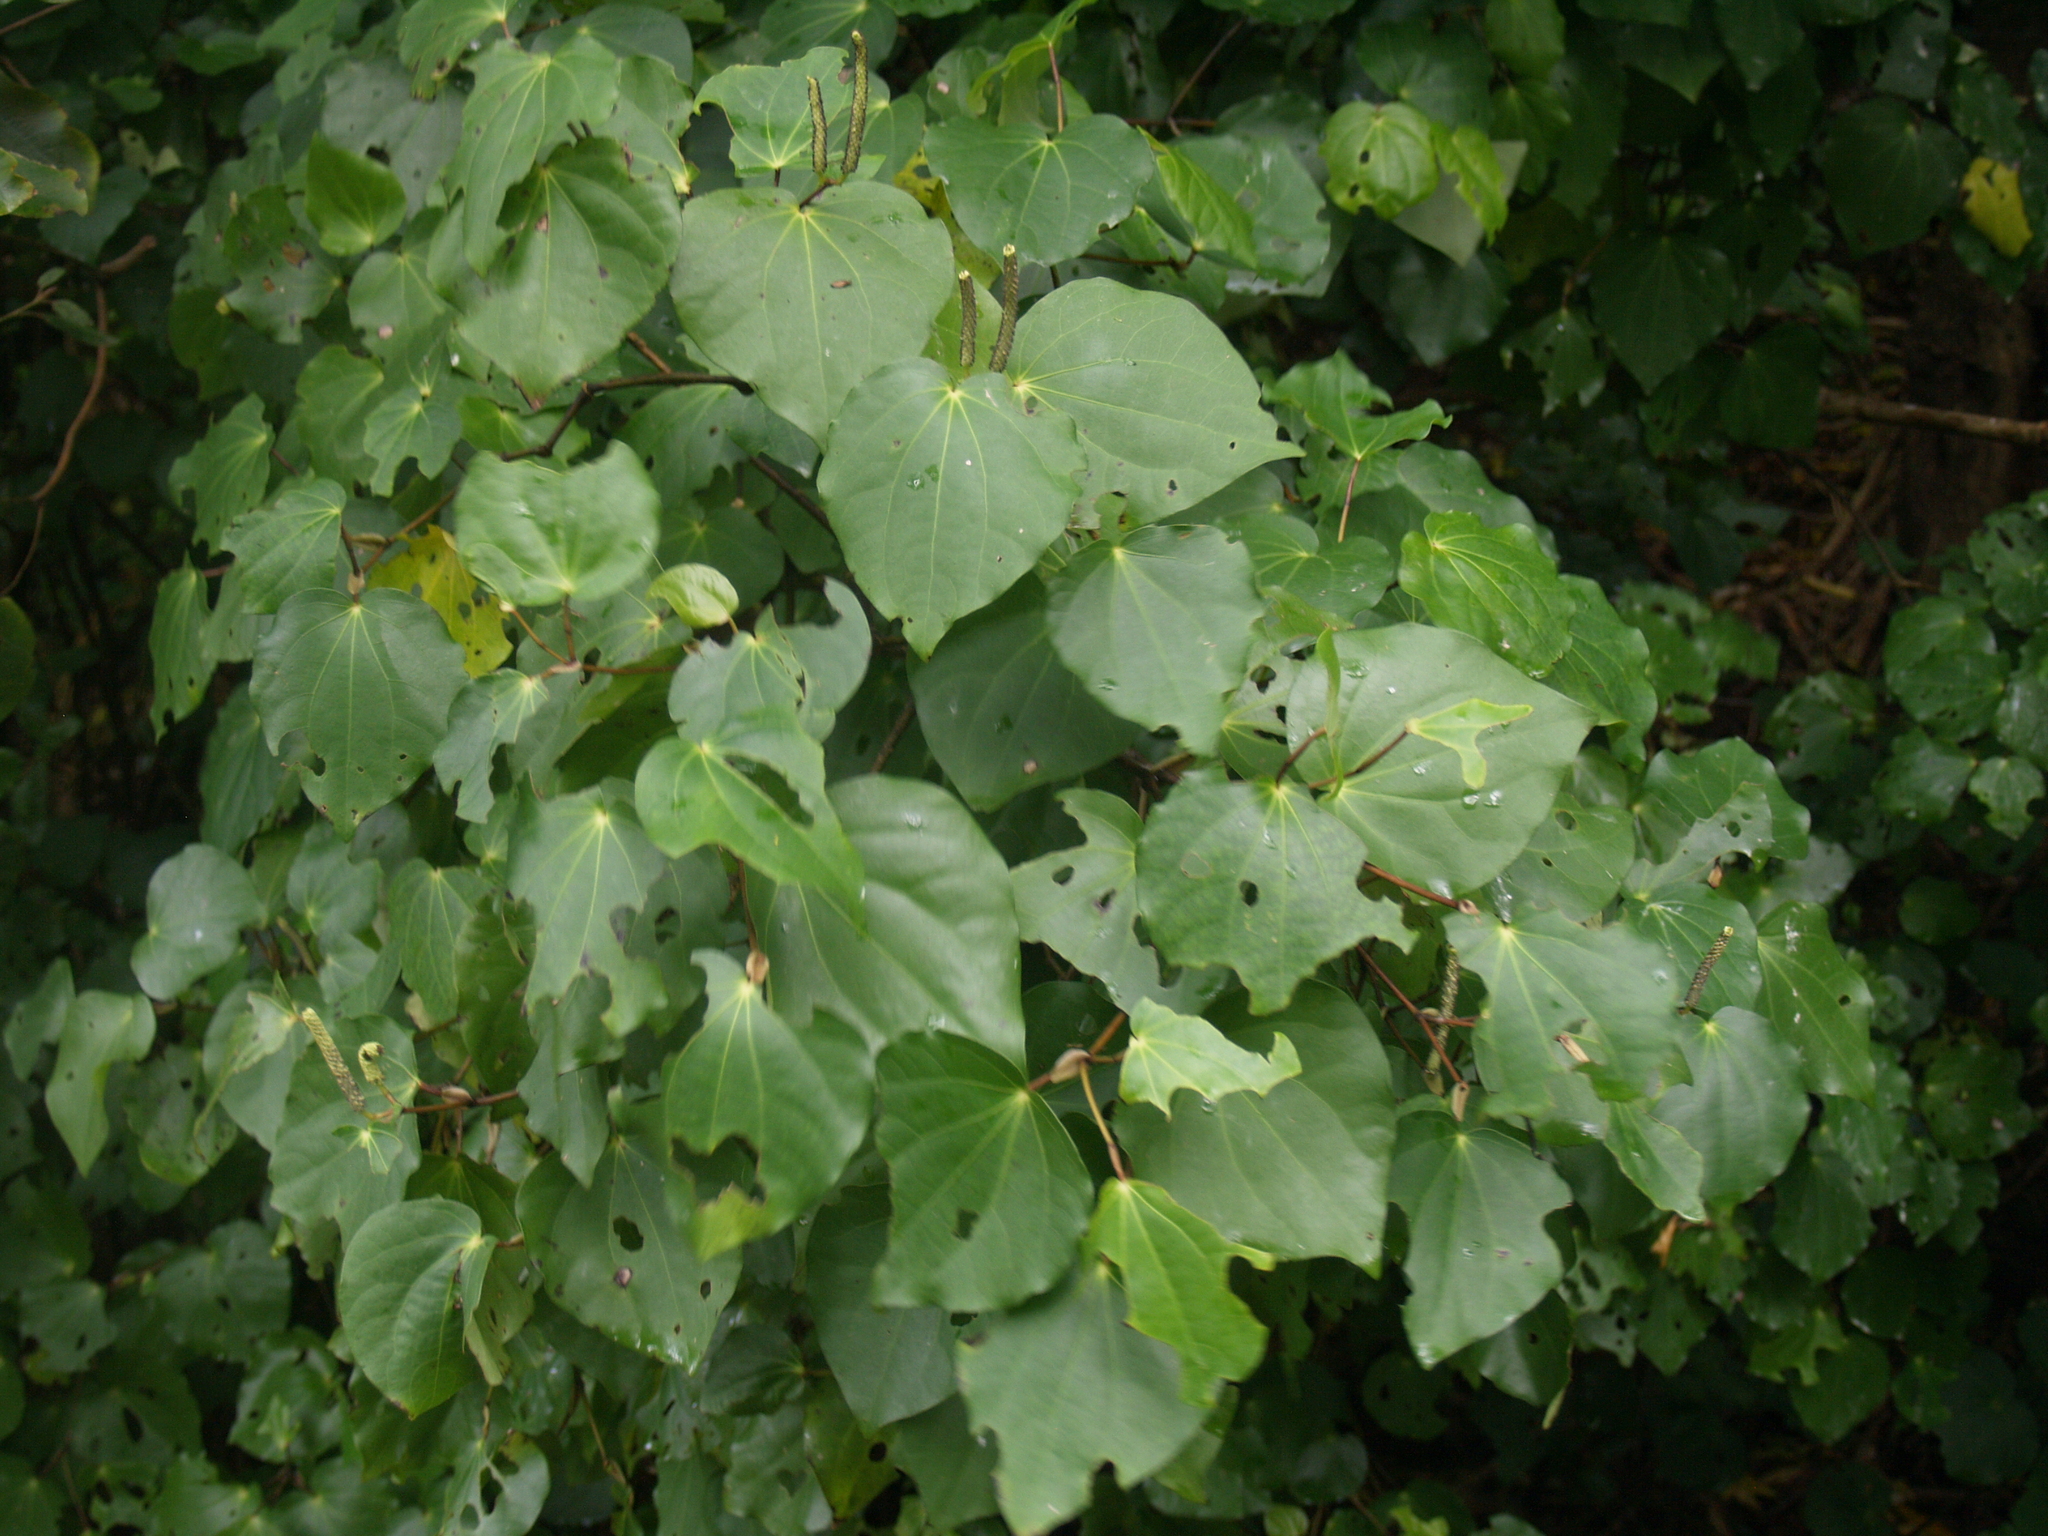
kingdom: Plantae
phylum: Tracheophyta
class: Magnoliopsida
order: Piperales
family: Piperaceae
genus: Macropiper
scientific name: Macropiper excelsum
